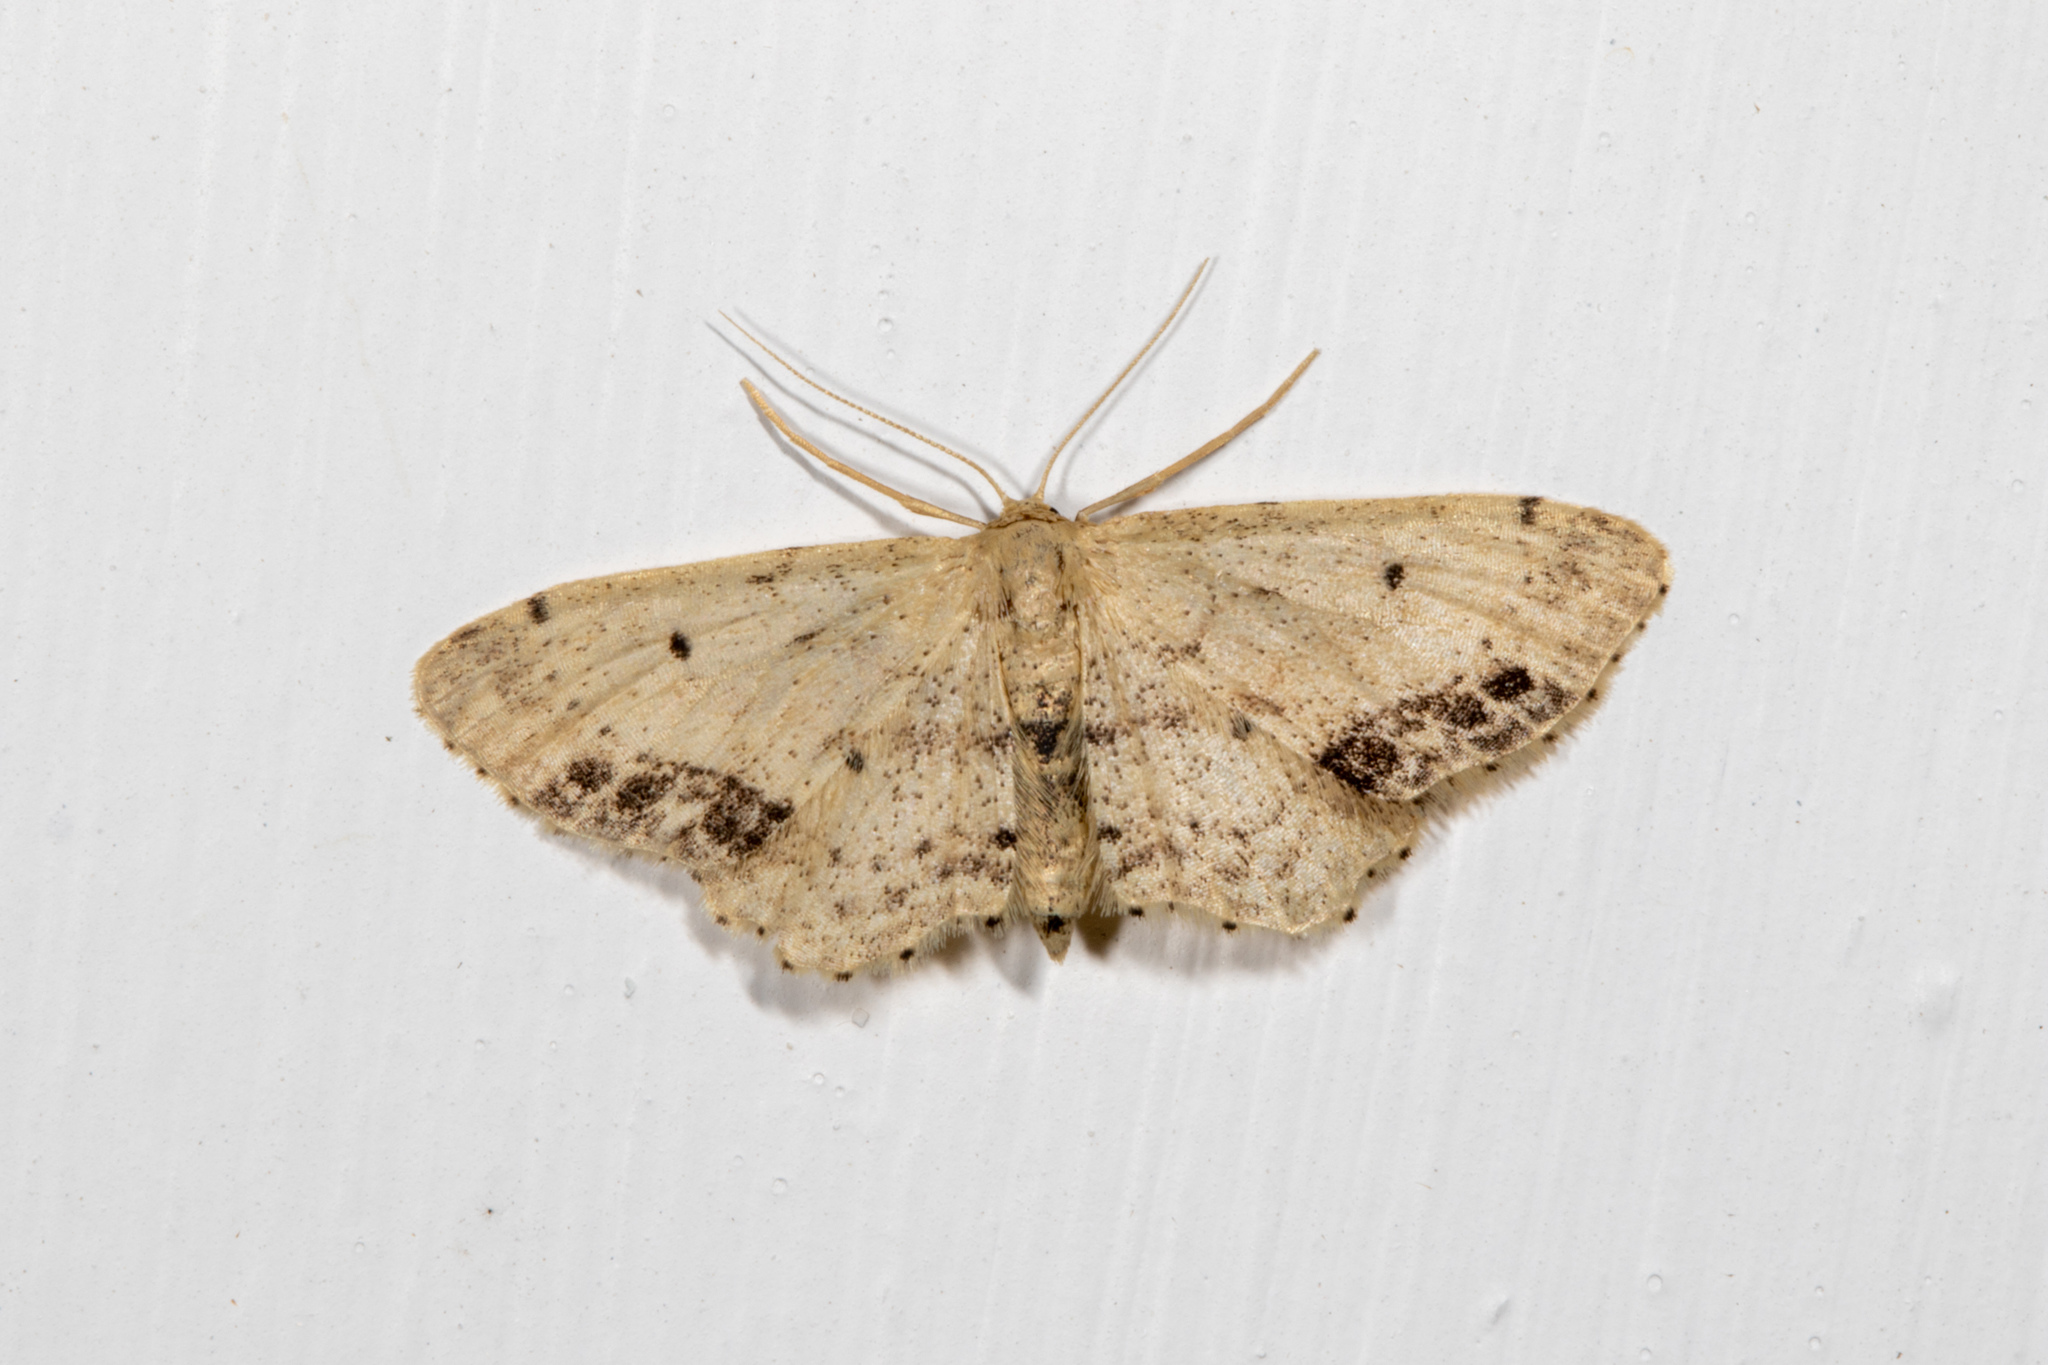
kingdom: Animalia
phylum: Arthropoda
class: Insecta
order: Lepidoptera
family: Geometridae
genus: Idaea
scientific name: Idaea dimidiata
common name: Single-dotted wave
